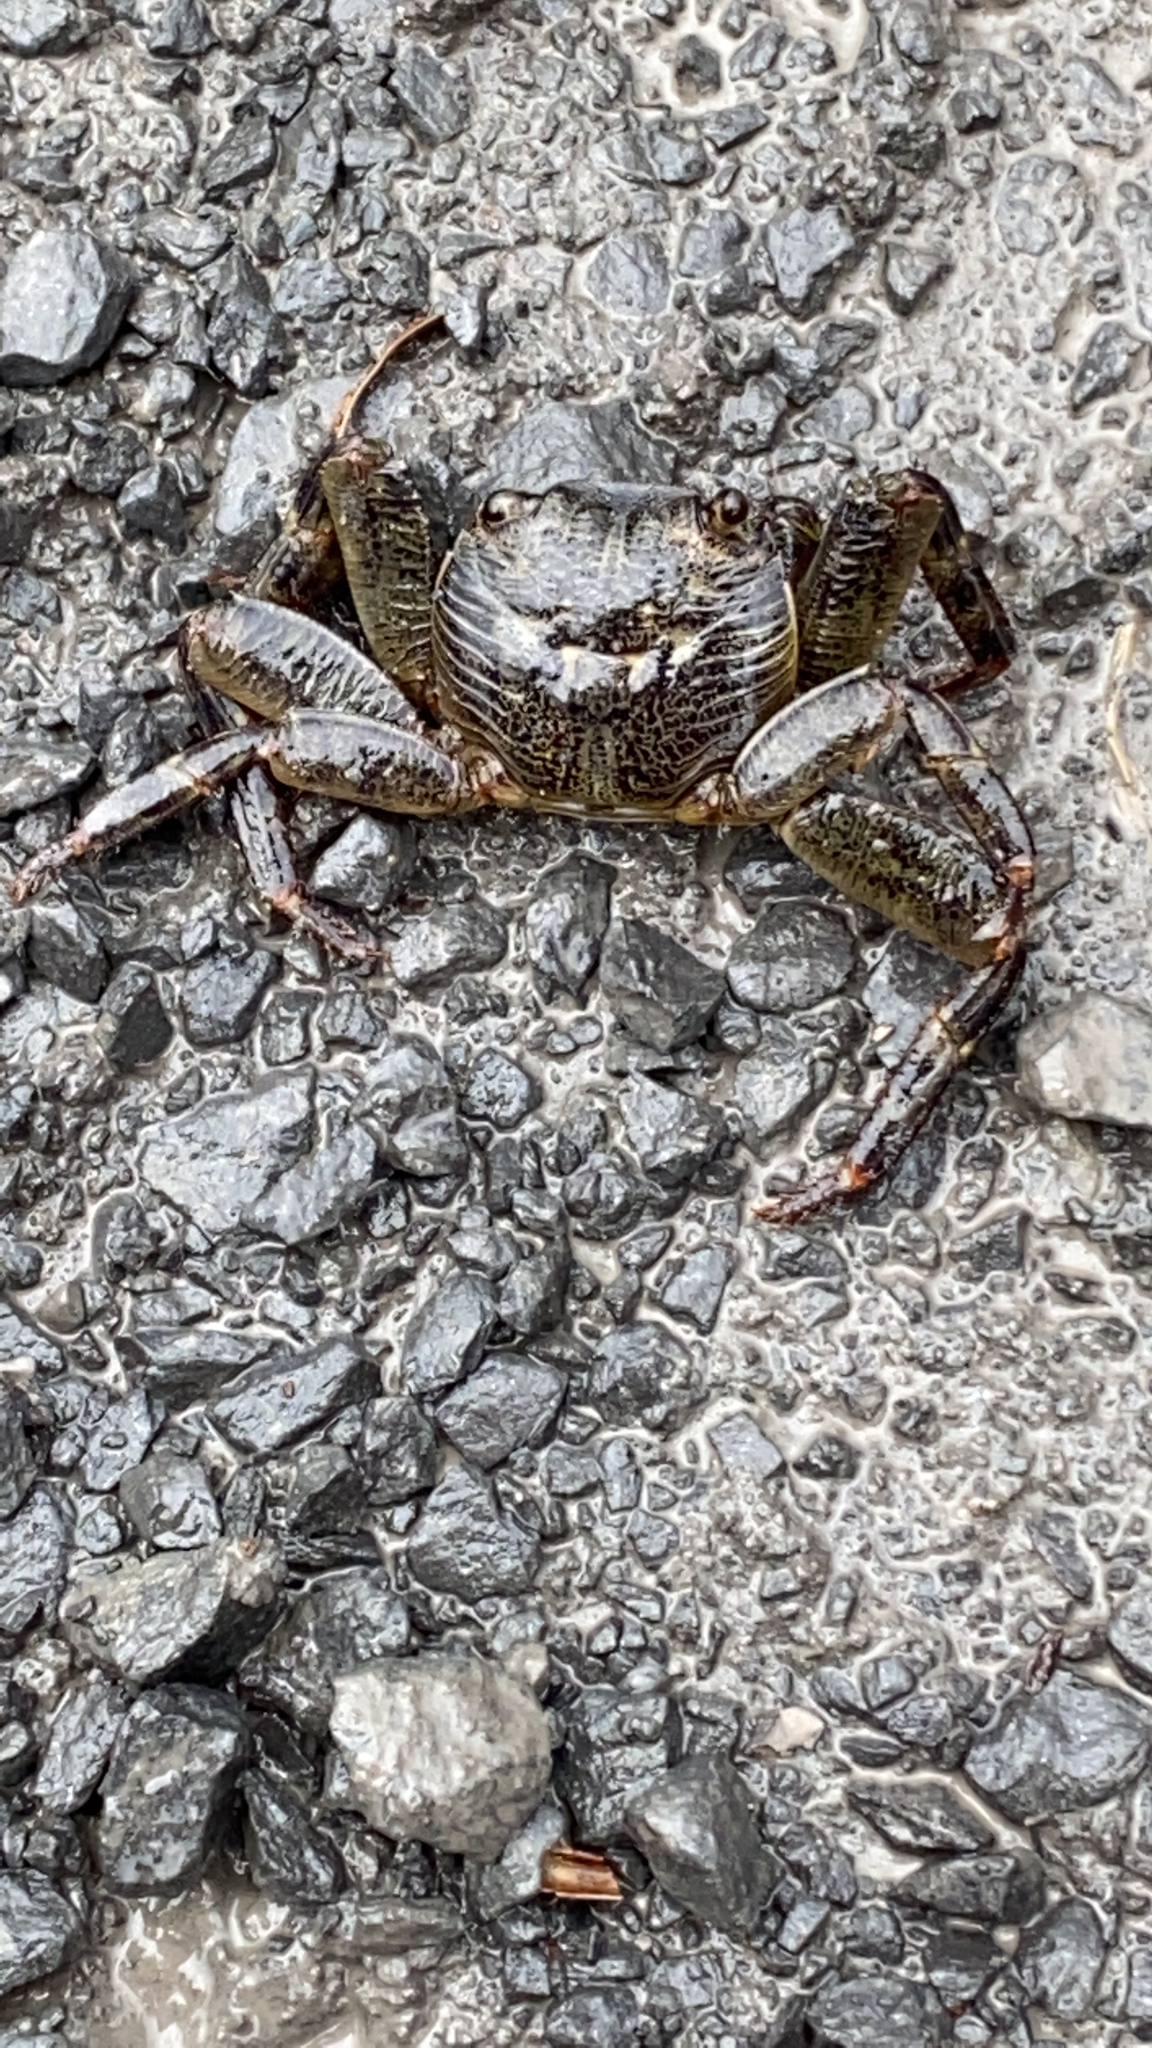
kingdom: Animalia
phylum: Arthropoda
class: Malacostraca
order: Decapoda
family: Grapsidae
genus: Leptograpsus
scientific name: Leptograpsus variegatus
